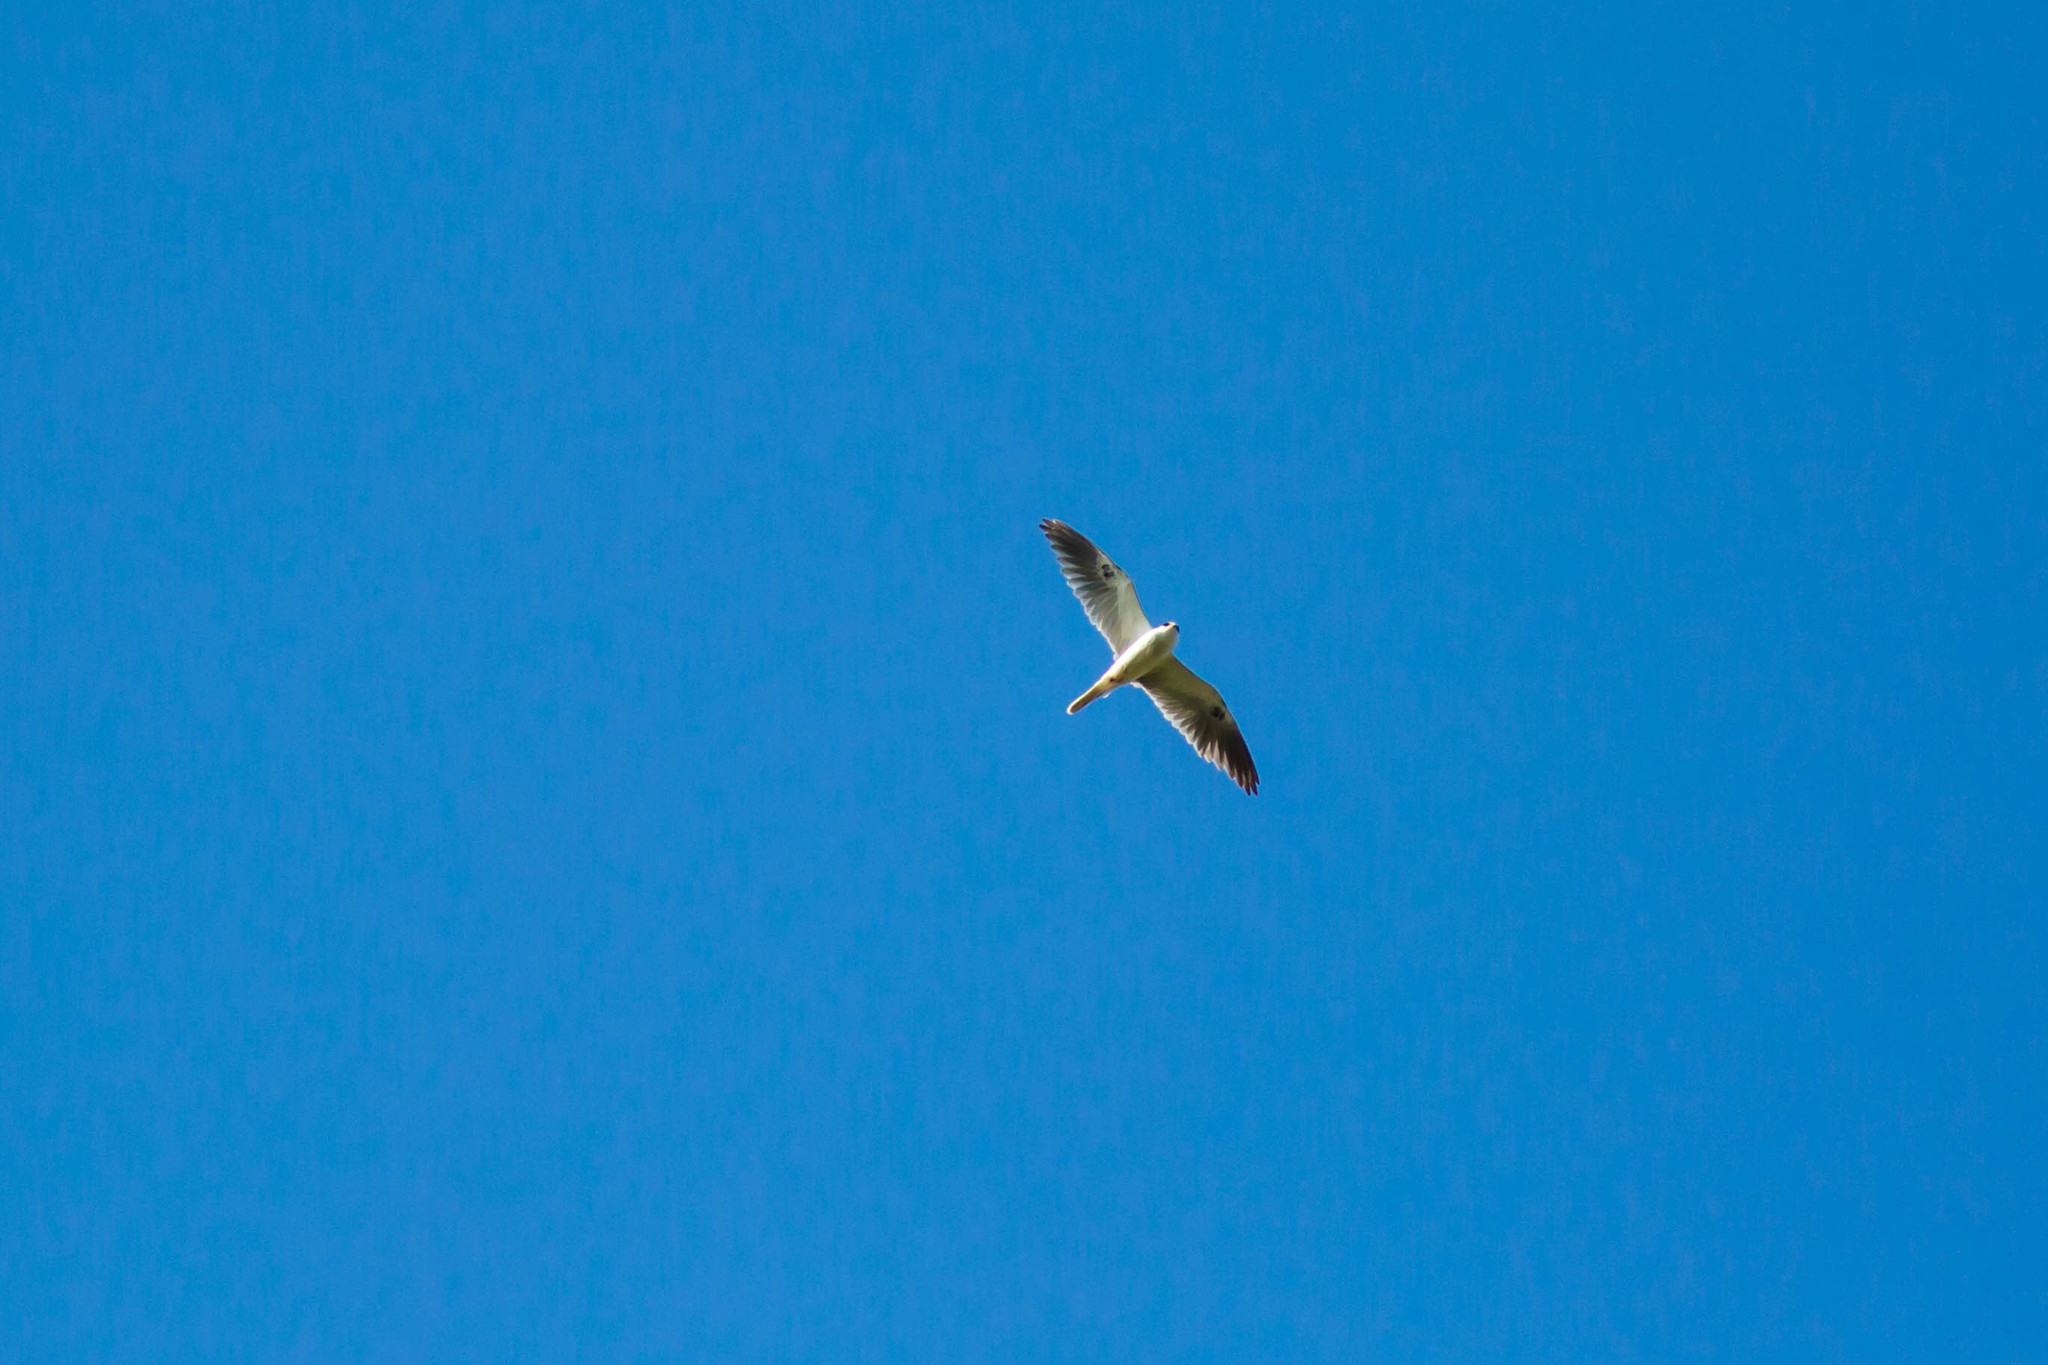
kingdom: Animalia
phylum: Chordata
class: Aves
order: Accipitriformes
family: Accipitridae
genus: Elanus
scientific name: Elanus leucurus
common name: White-tailed kite
